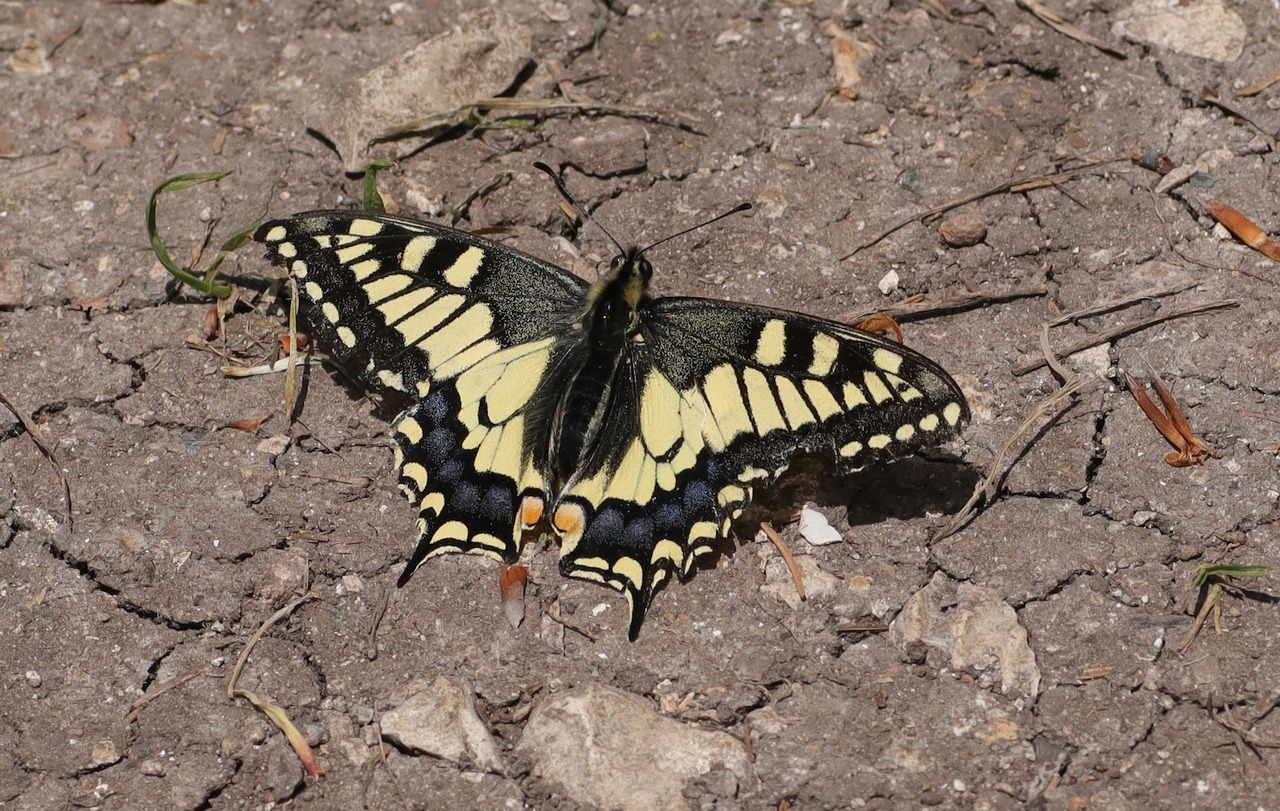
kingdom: Animalia
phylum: Arthropoda
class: Insecta
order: Lepidoptera
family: Papilionidae
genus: Papilio
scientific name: Papilio machaon
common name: Swallowtail
